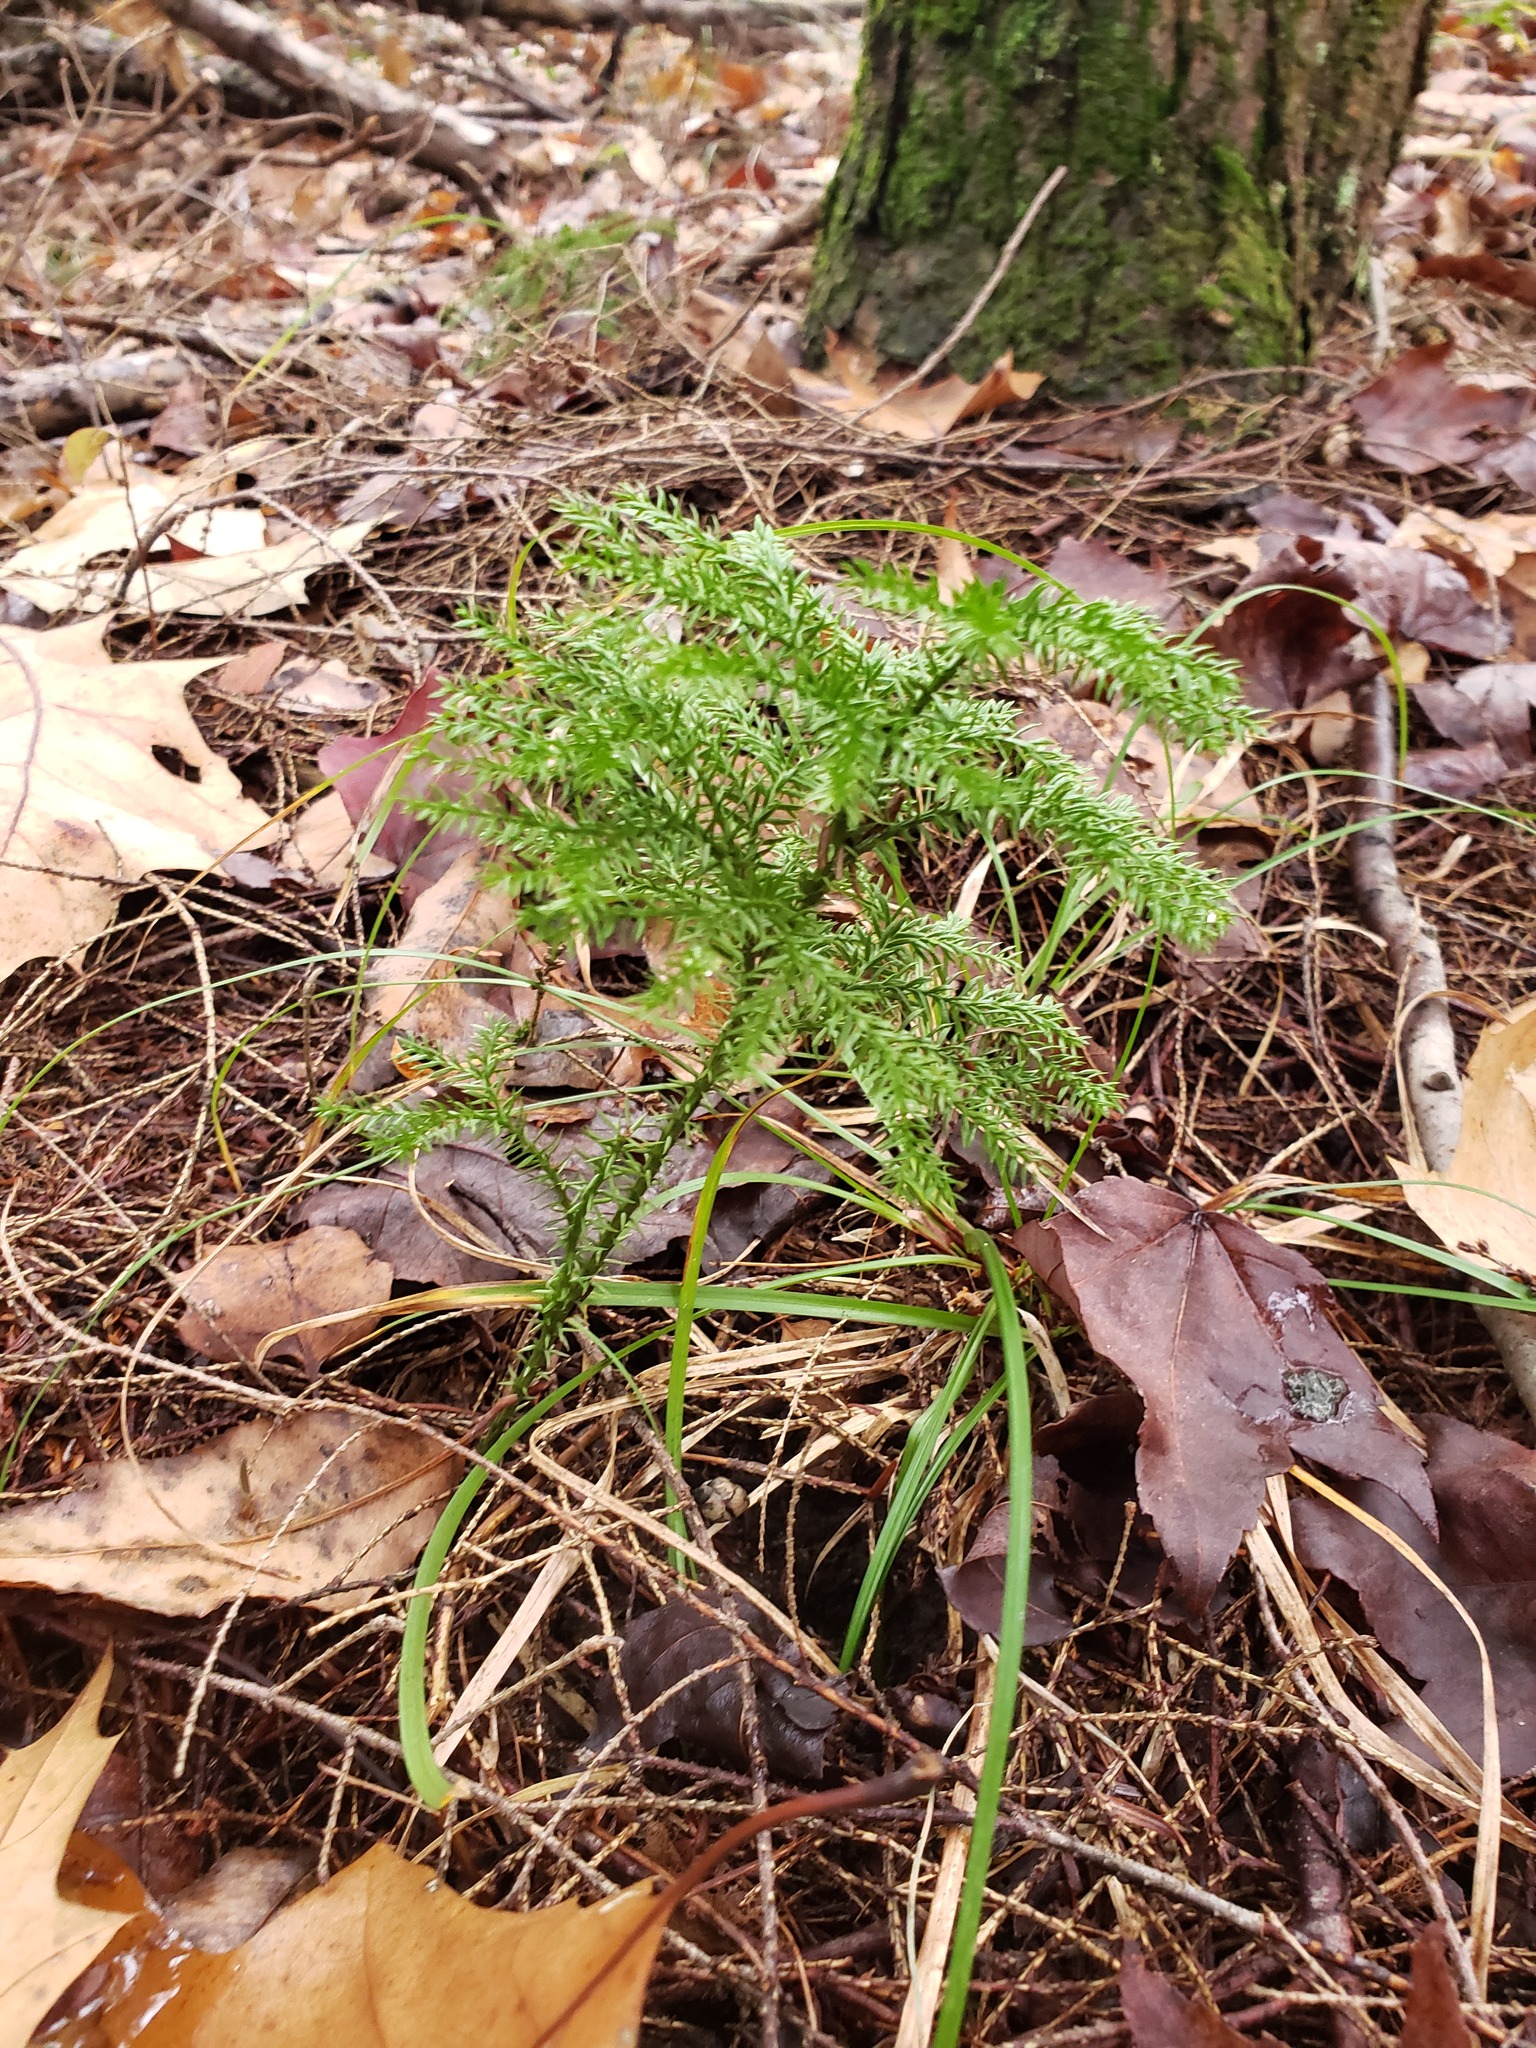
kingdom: Plantae
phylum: Tracheophyta
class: Lycopodiopsida
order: Lycopodiales
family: Lycopodiaceae
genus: Dendrolycopodium
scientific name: Dendrolycopodium dendroideum
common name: Northern tree-clubmoss
